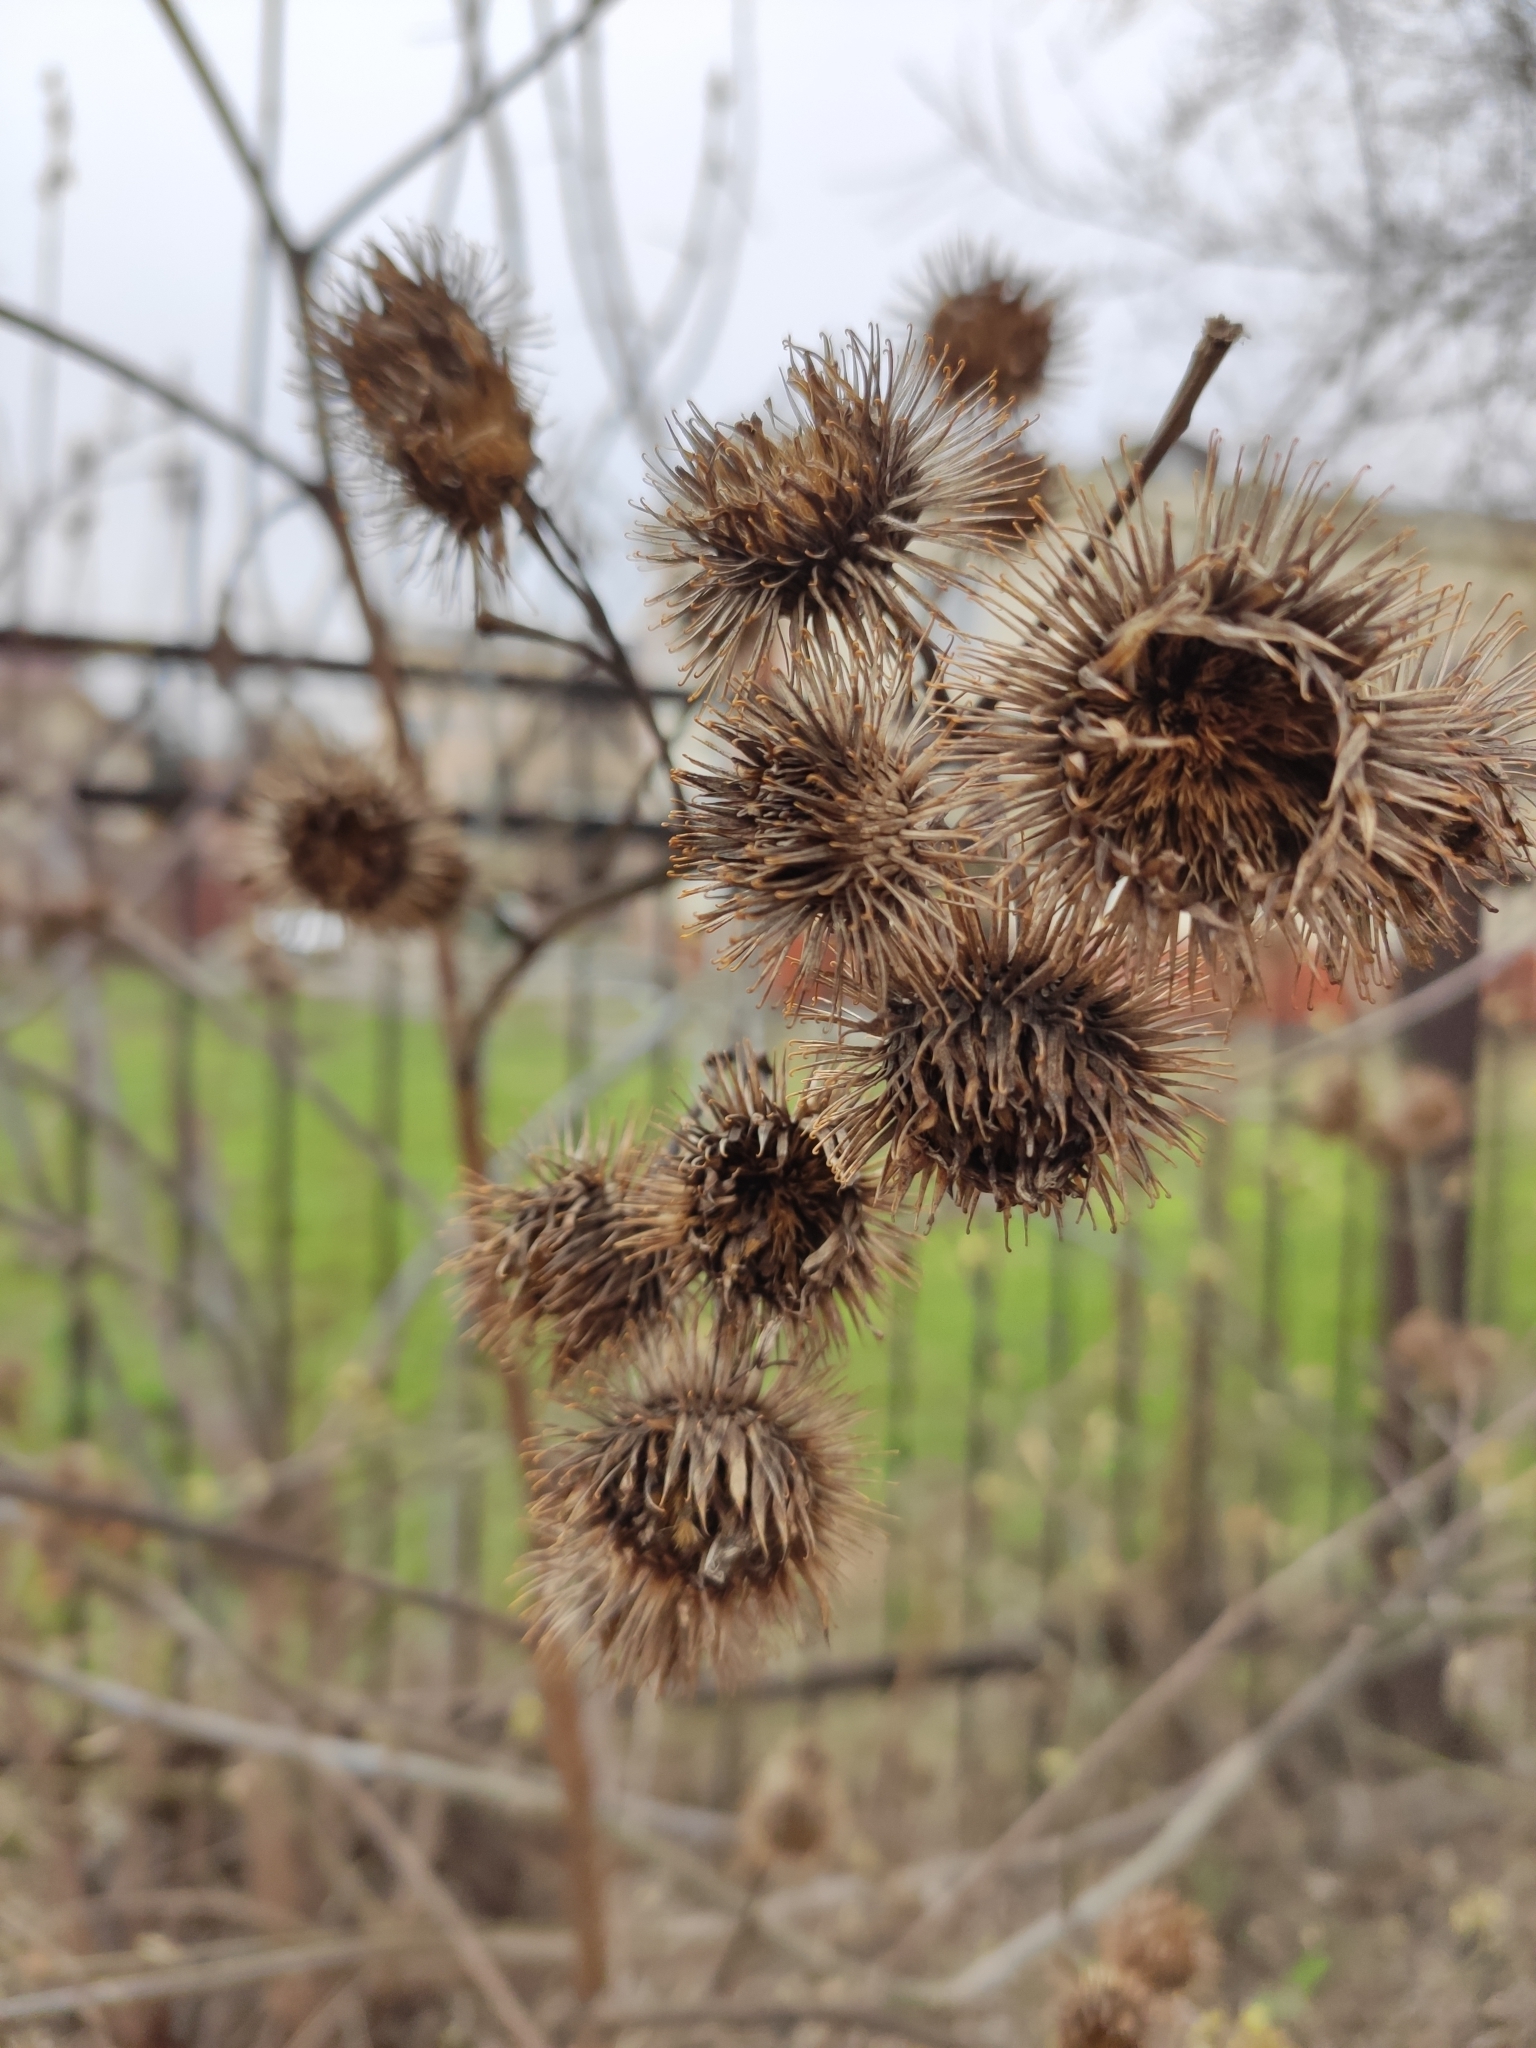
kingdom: Plantae
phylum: Tracheophyta
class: Magnoliopsida
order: Asterales
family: Asteraceae
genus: Arctium
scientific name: Arctium tomentosum
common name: Woolly burdock
